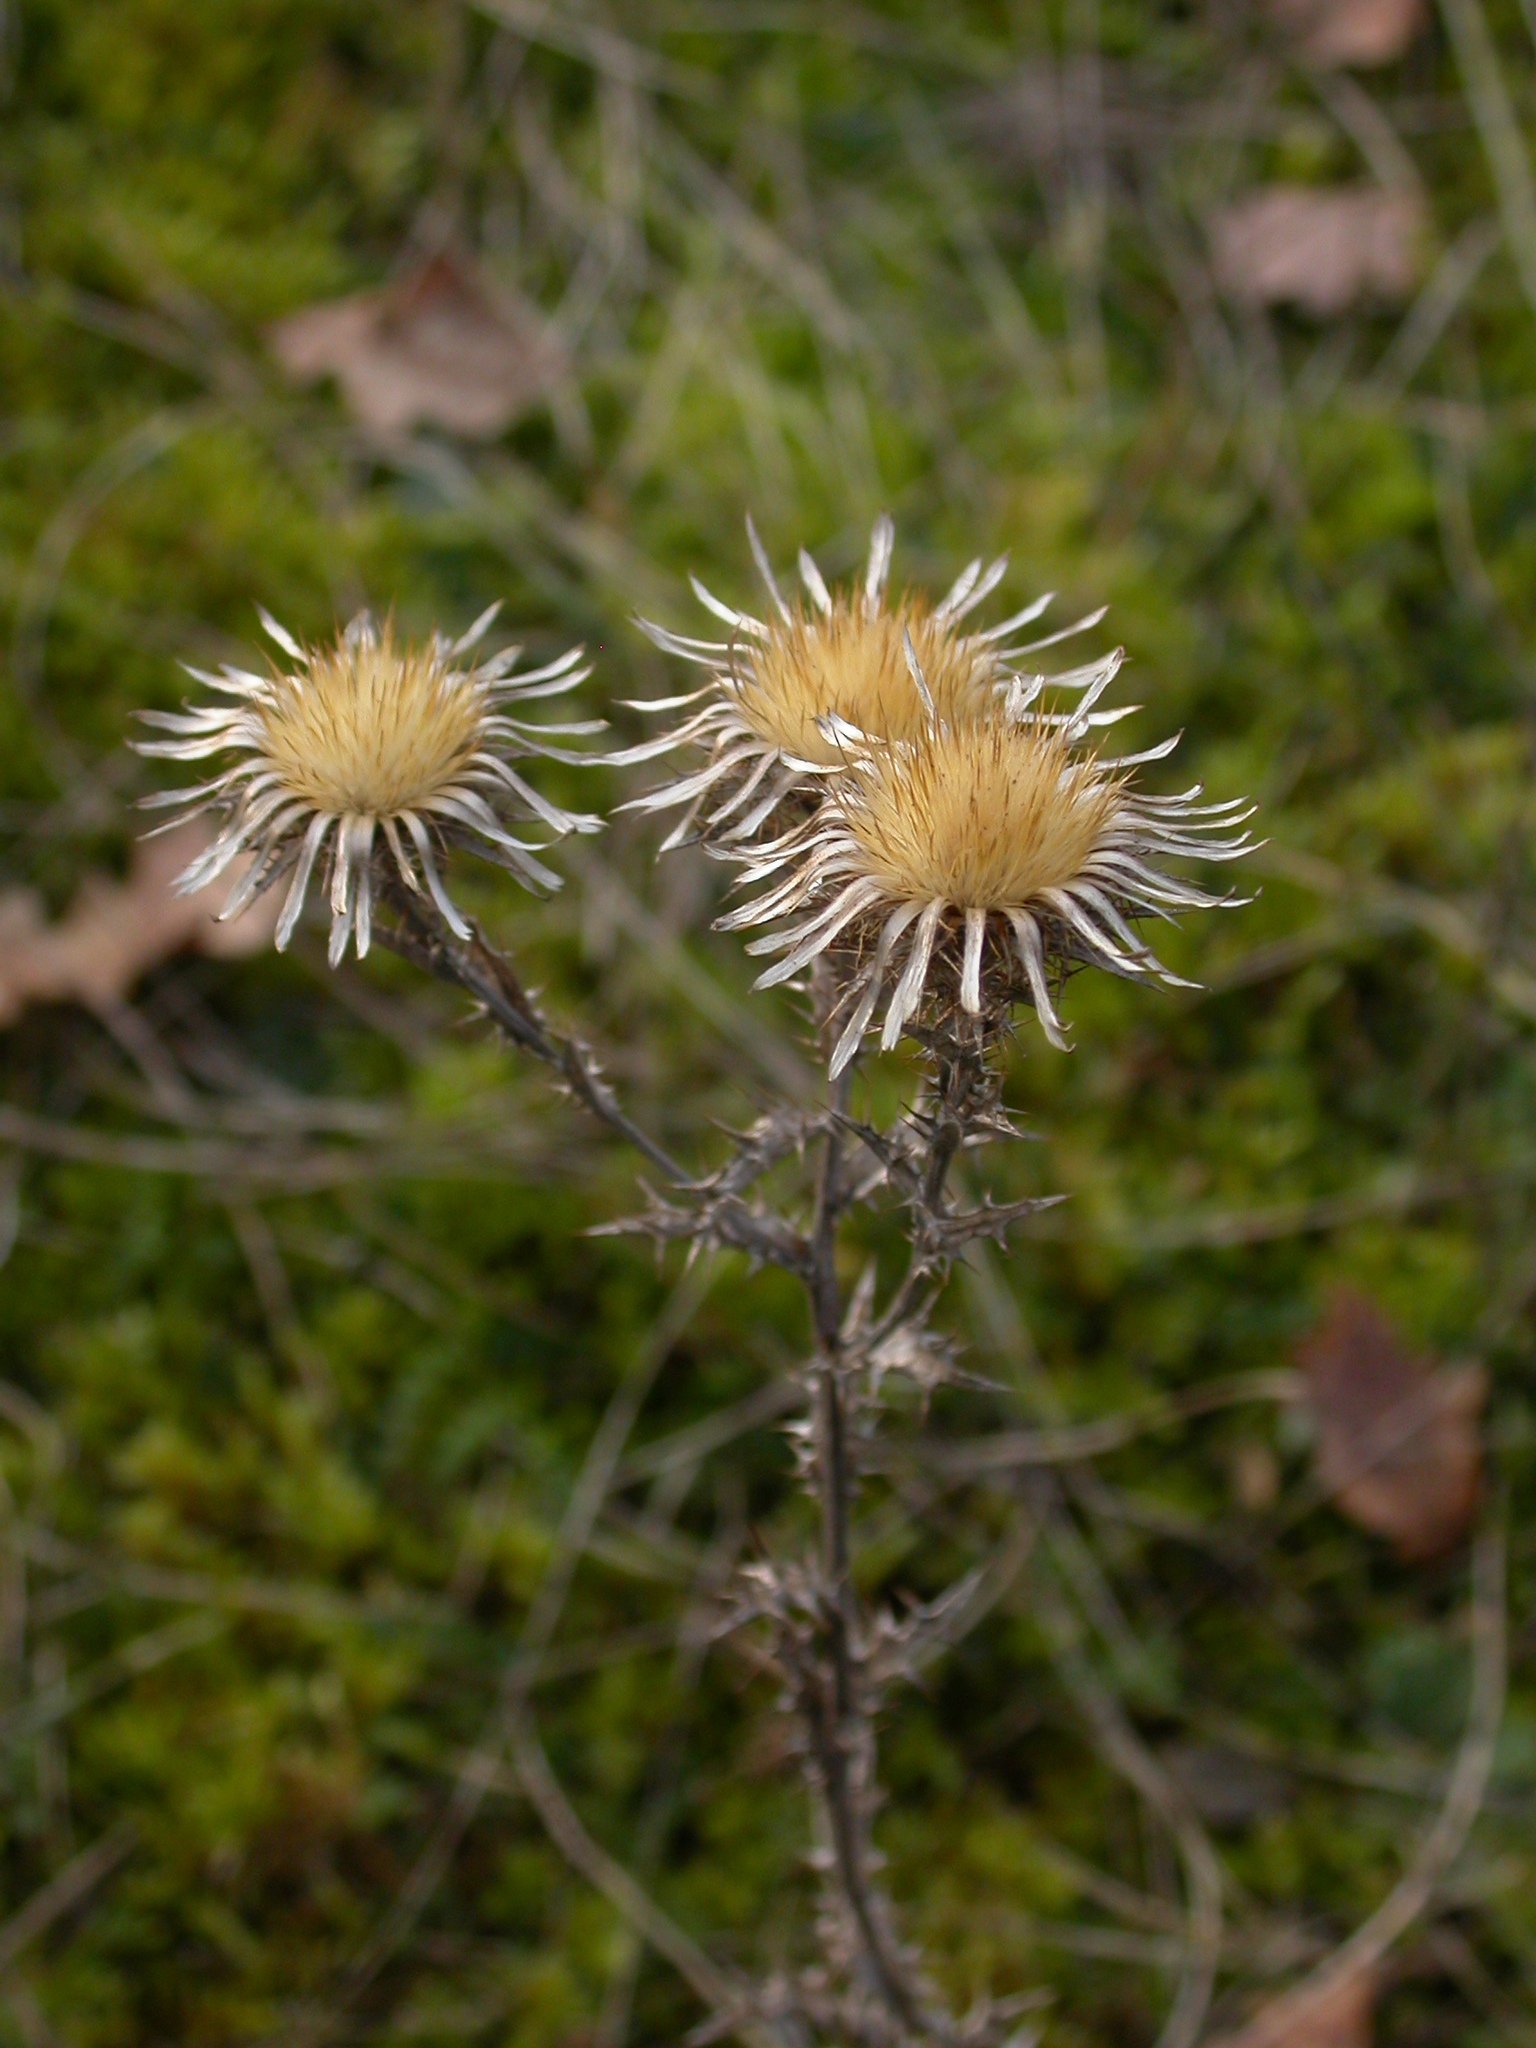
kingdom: Plantae
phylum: Tracheophyta
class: Magnoliopsida
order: Asterales
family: Asteraceae
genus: Carlina
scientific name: Carlina vulgaris
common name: Carline thistle
